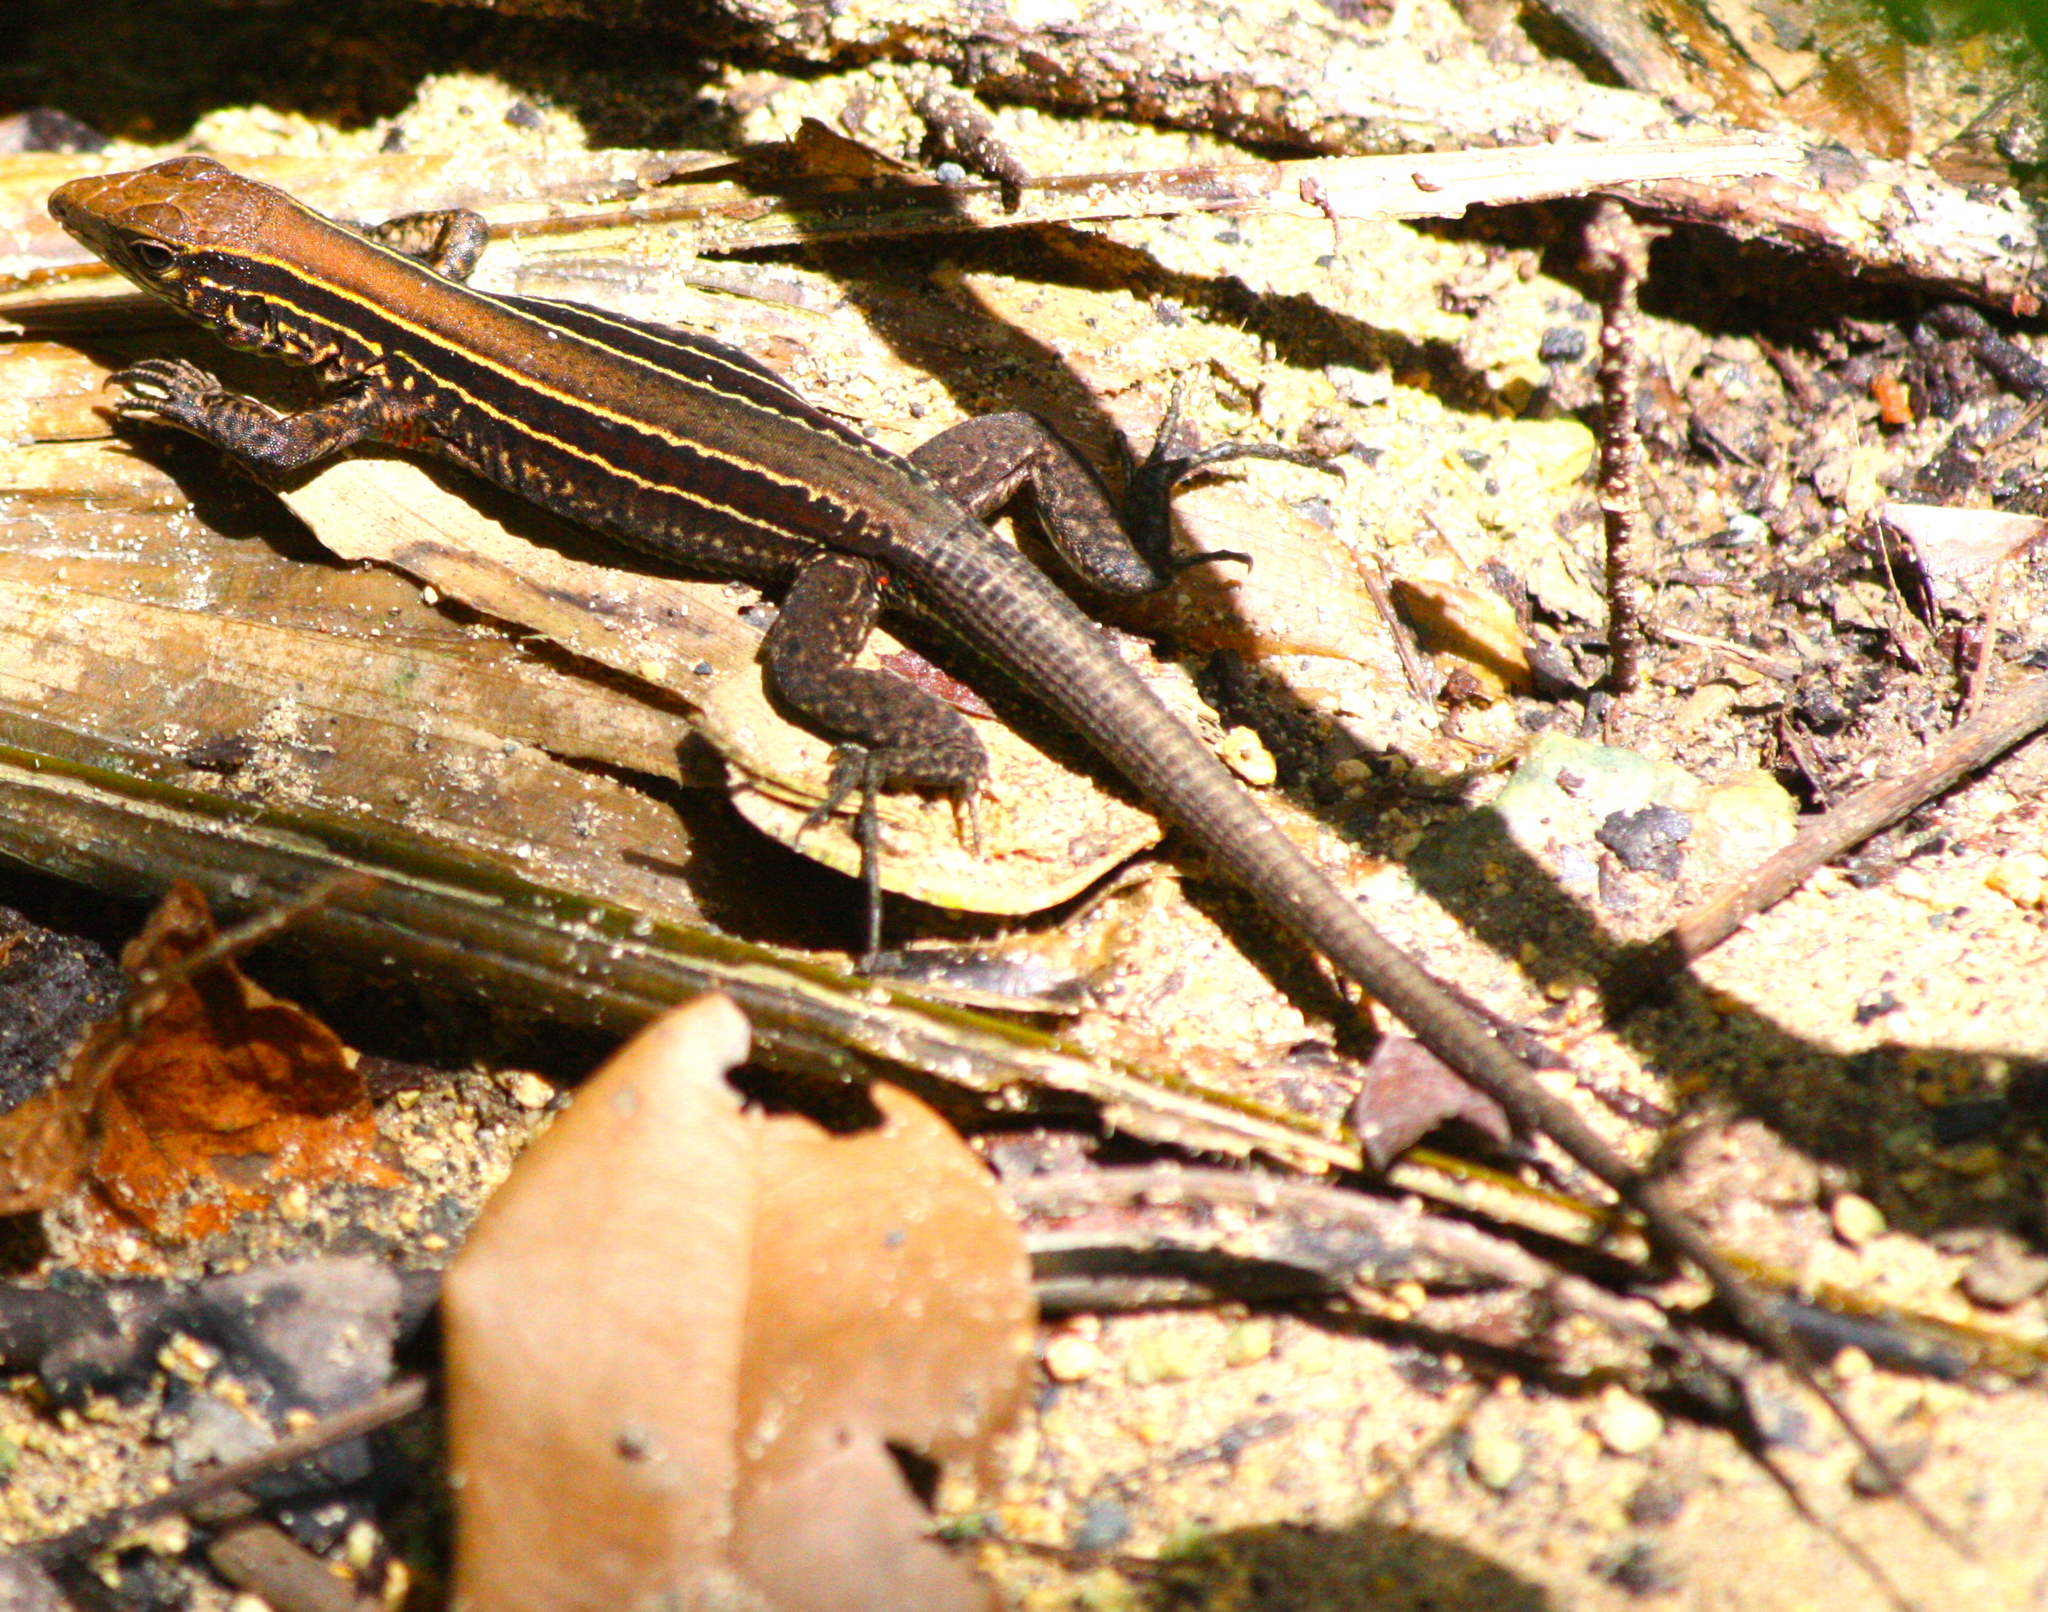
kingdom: Animalia
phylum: Chordata
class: Squamata
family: Teiidae
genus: Holcosus
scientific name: Holcosus quadrilineatus
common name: Four-lined ameiva
